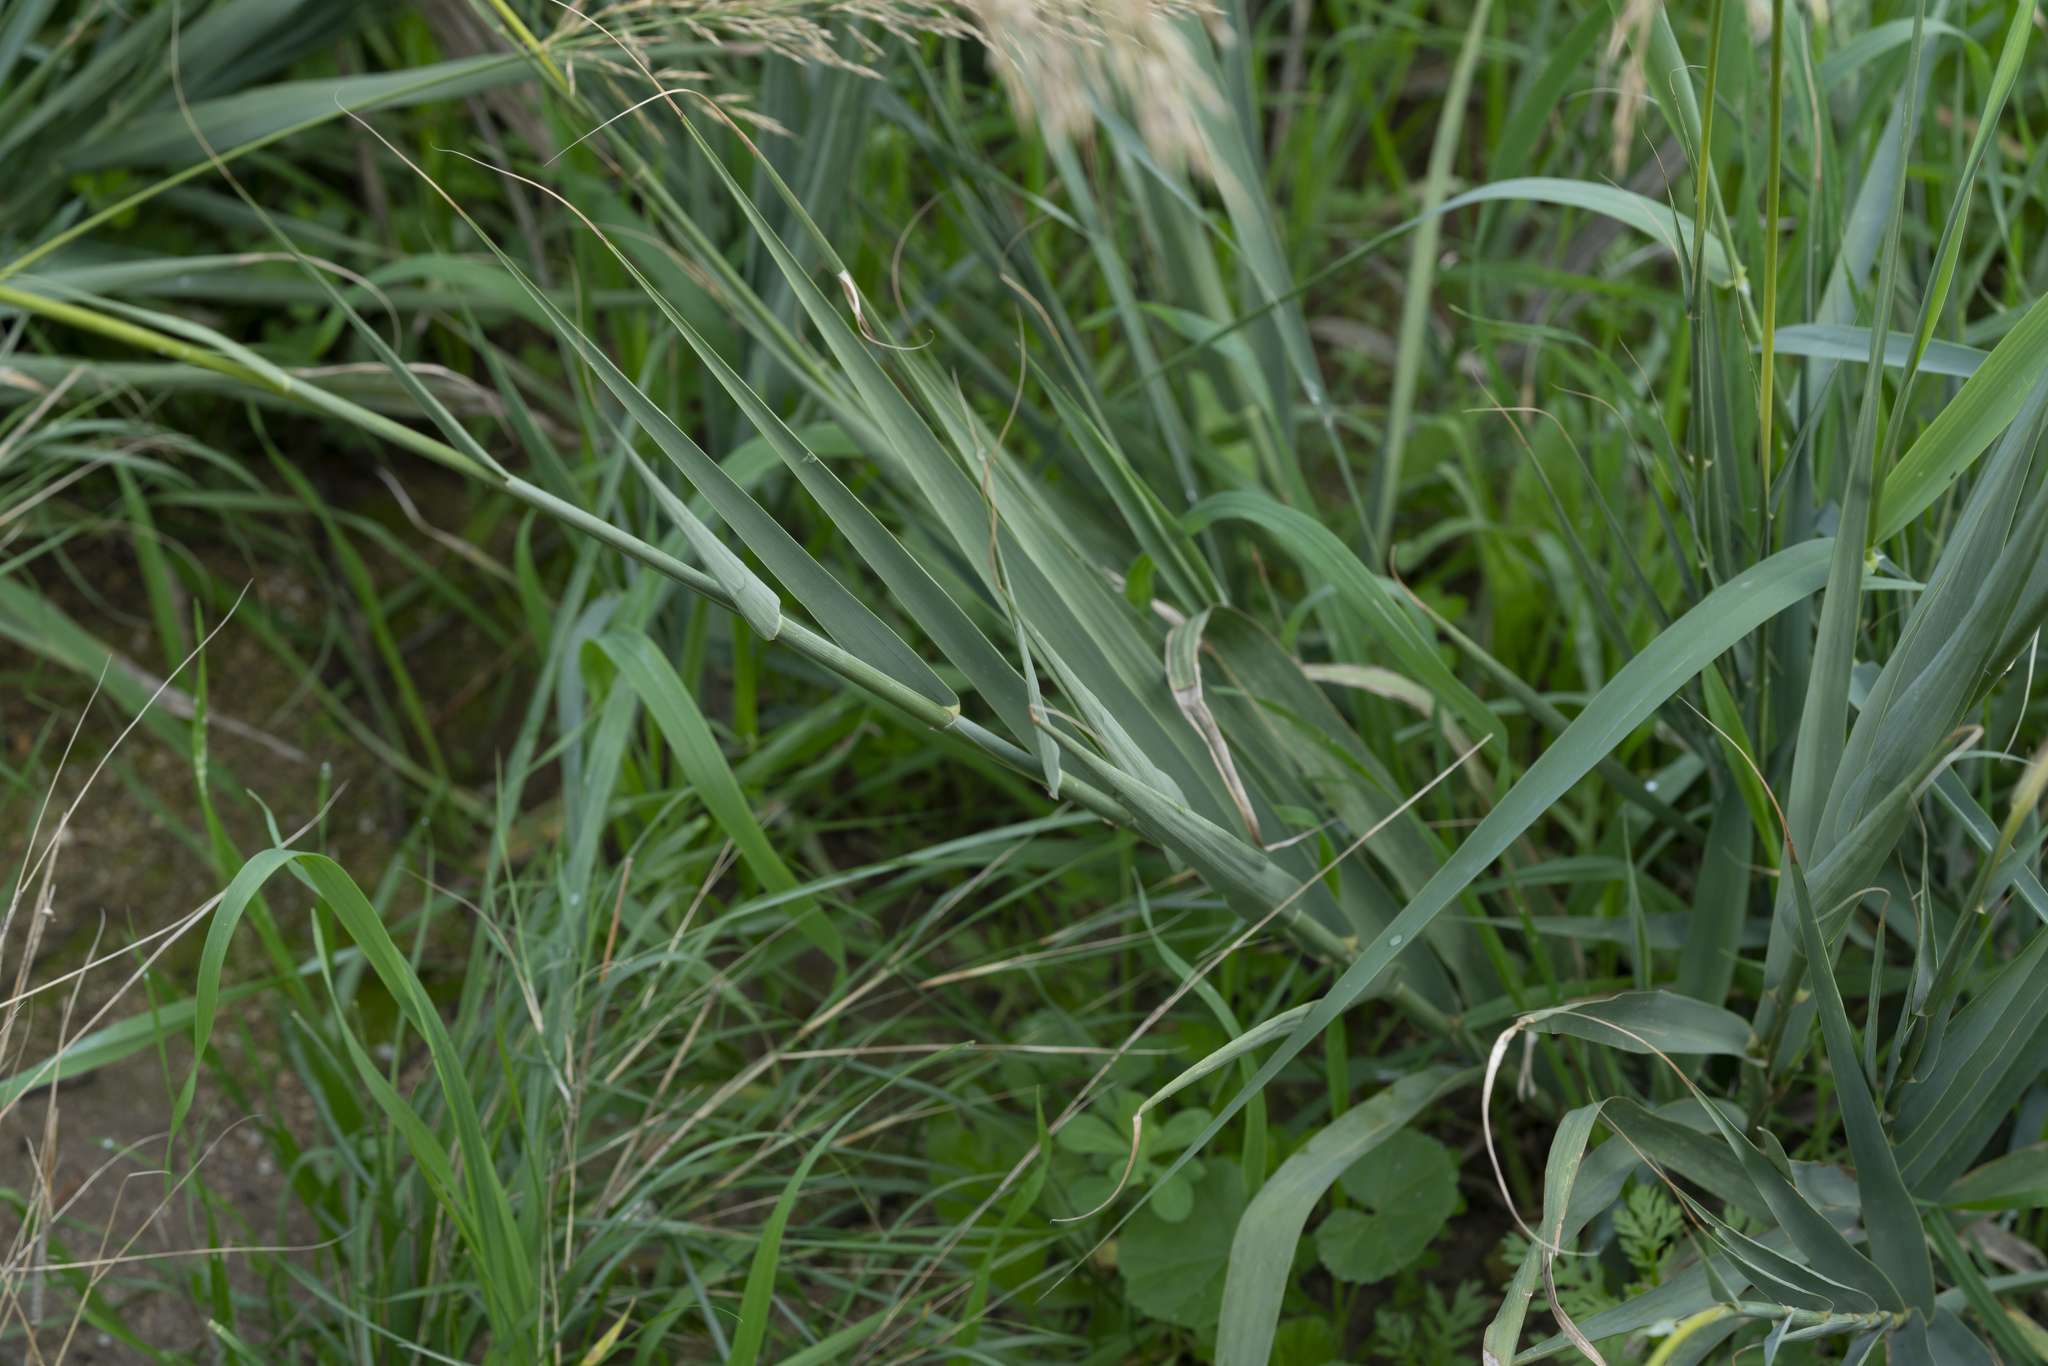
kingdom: Plantae
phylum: Tracheophyta
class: Liliopsida
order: Poales
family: Poaceae
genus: Phragmites
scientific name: Phragmites australis
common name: Common reed
